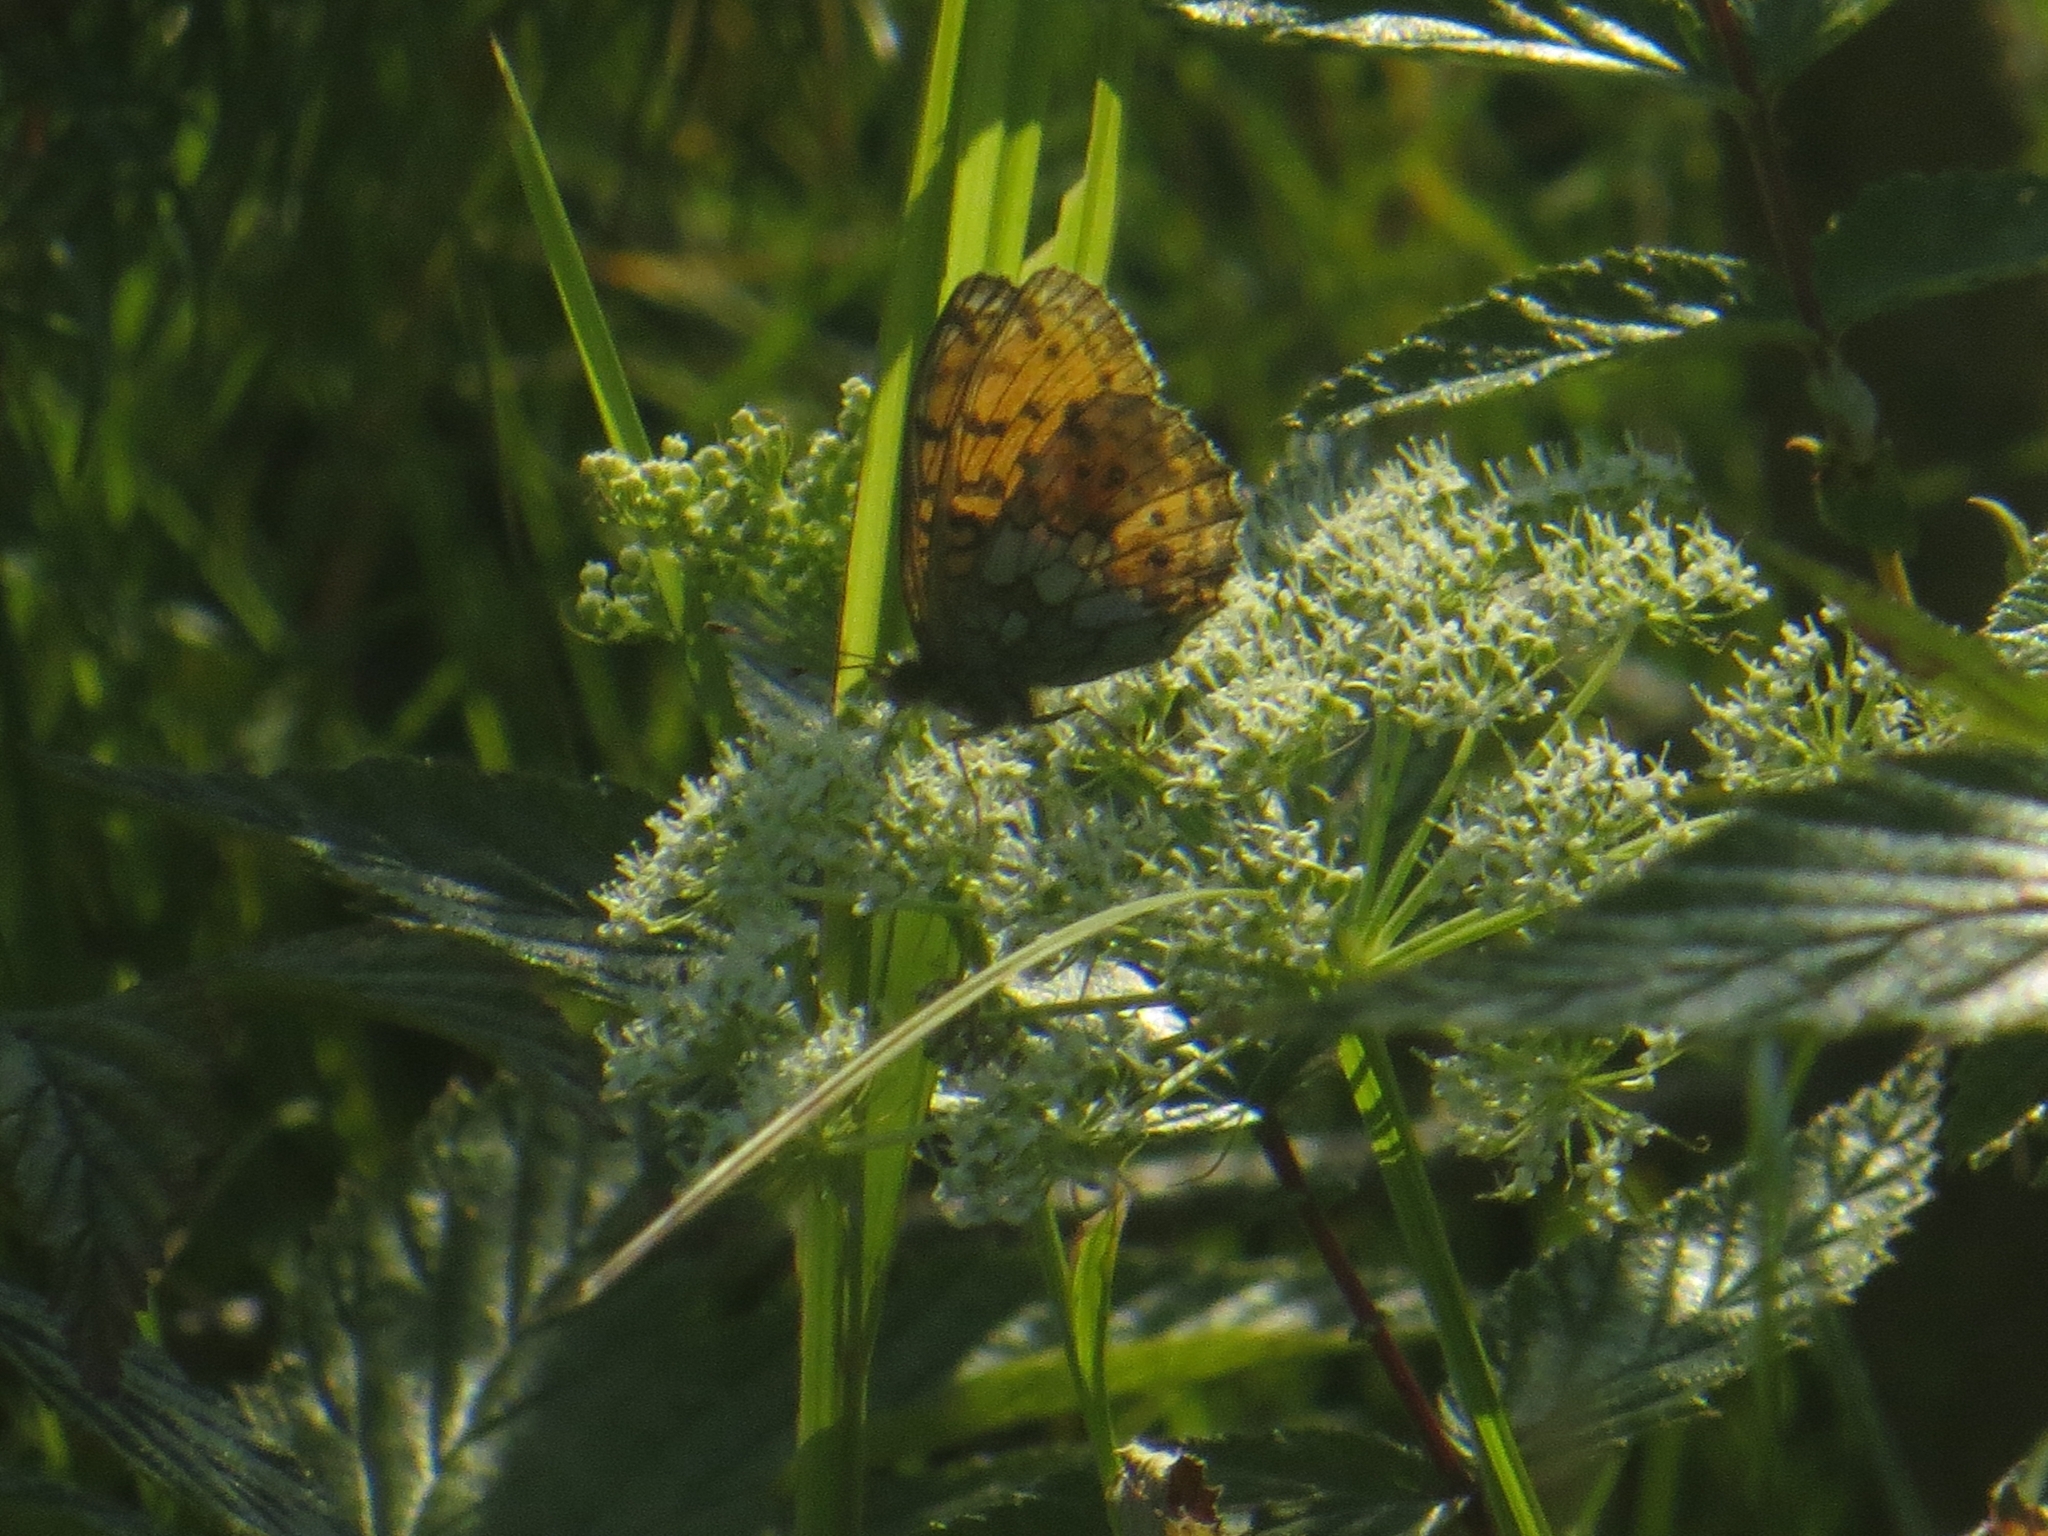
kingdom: Animalia
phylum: Arthropoda
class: Insecta
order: Lepidoptera
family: Nymphalidae
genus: Brenthis
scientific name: Brenthis ino
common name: Lesser marbled fritillary
